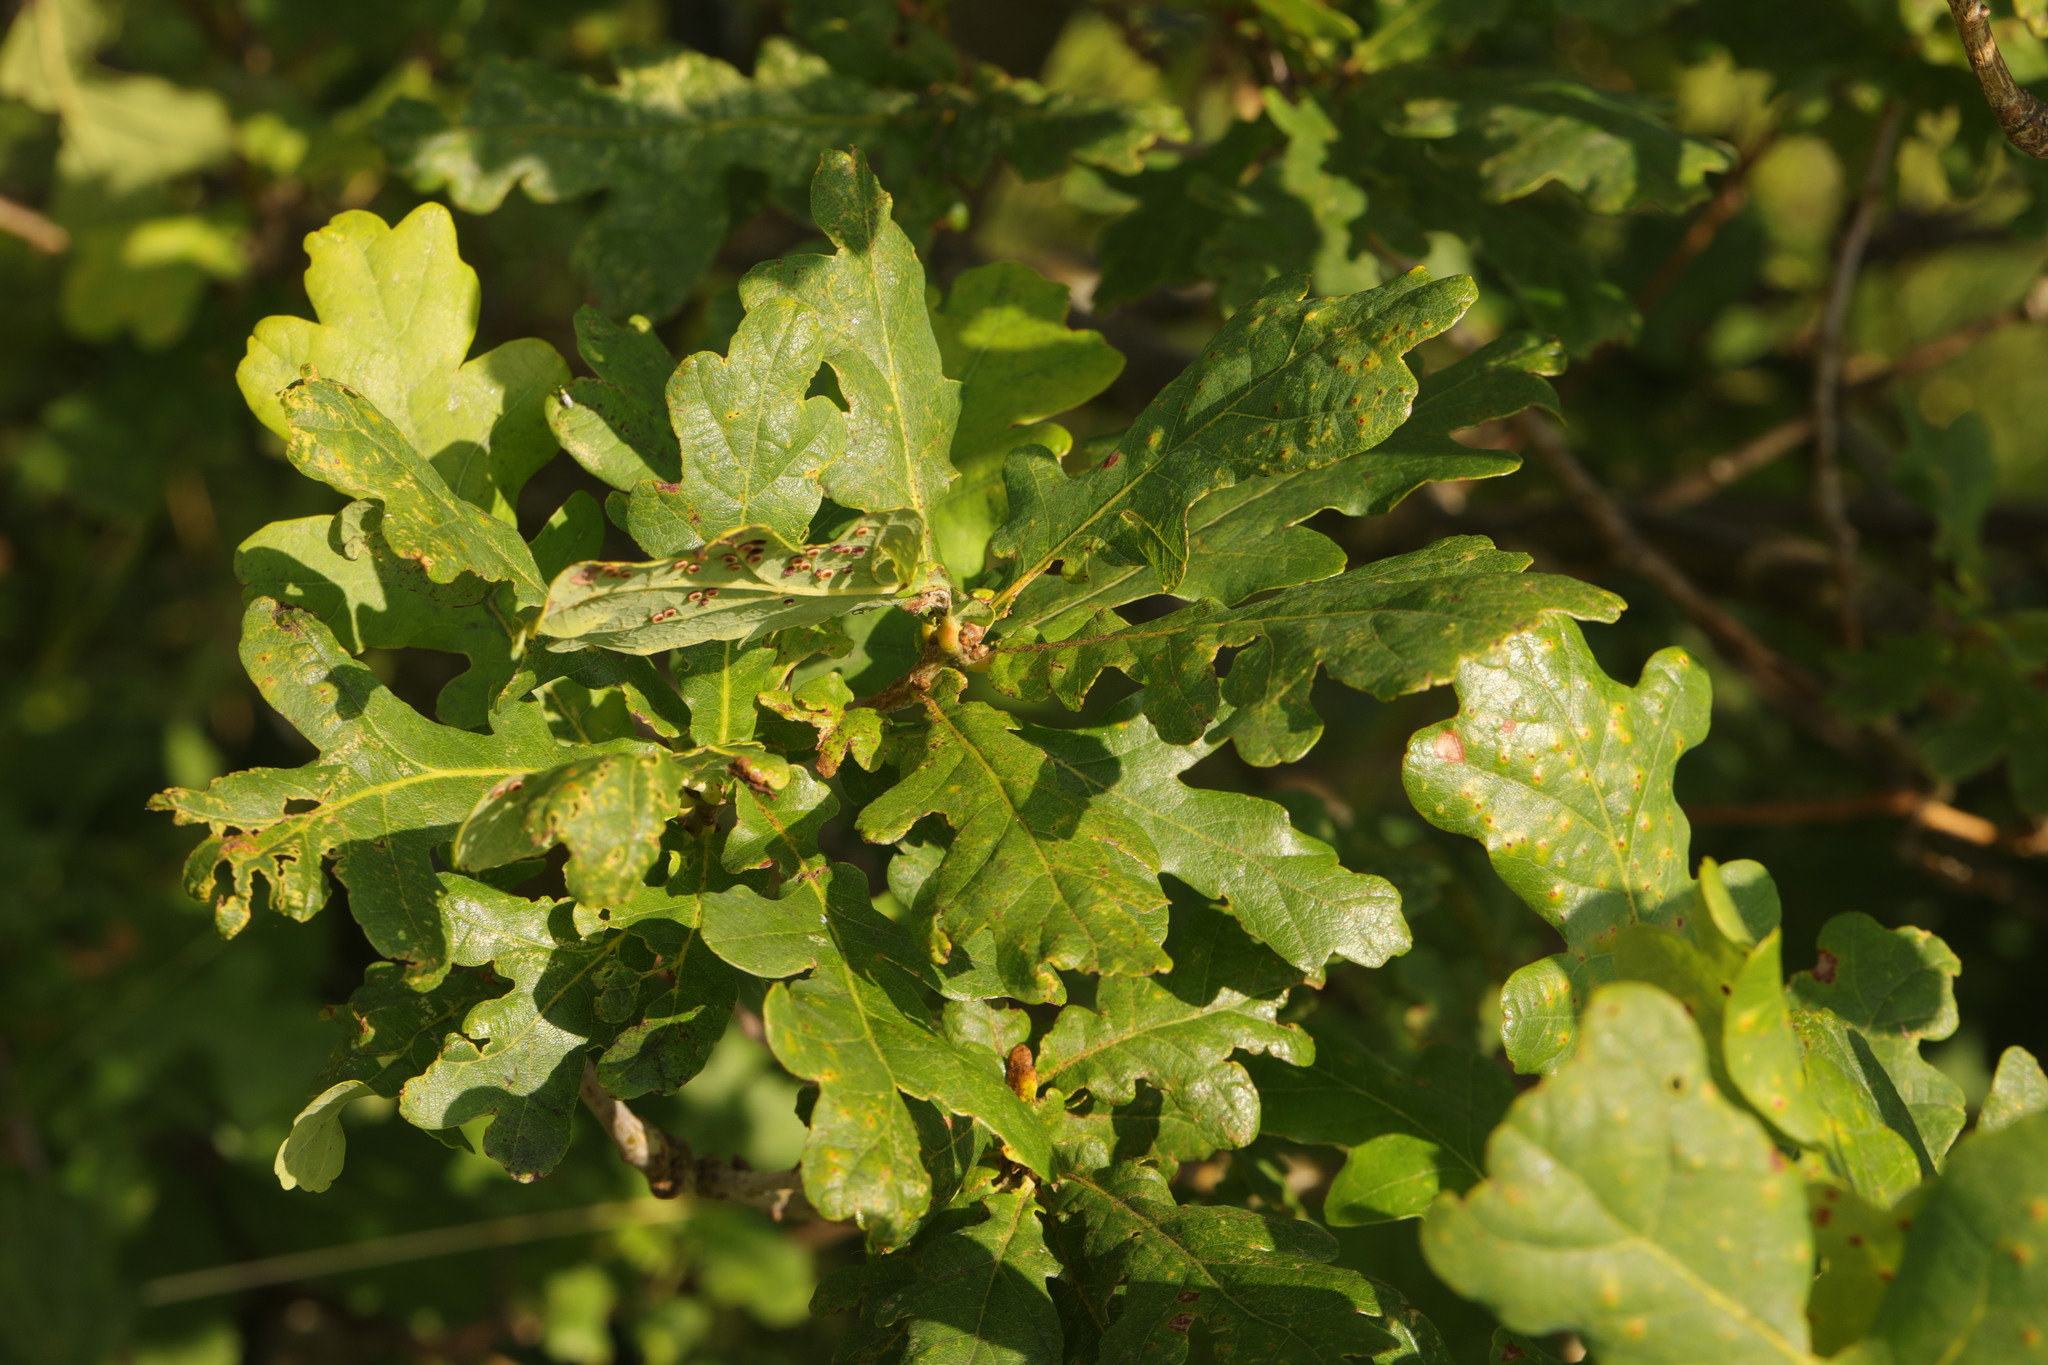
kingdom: Plantae
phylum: Tracheophyta
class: Magnoliopsida
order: Fagales
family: Fagaceae
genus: Quercus
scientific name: Quercus robur
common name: Pedunculate oak
